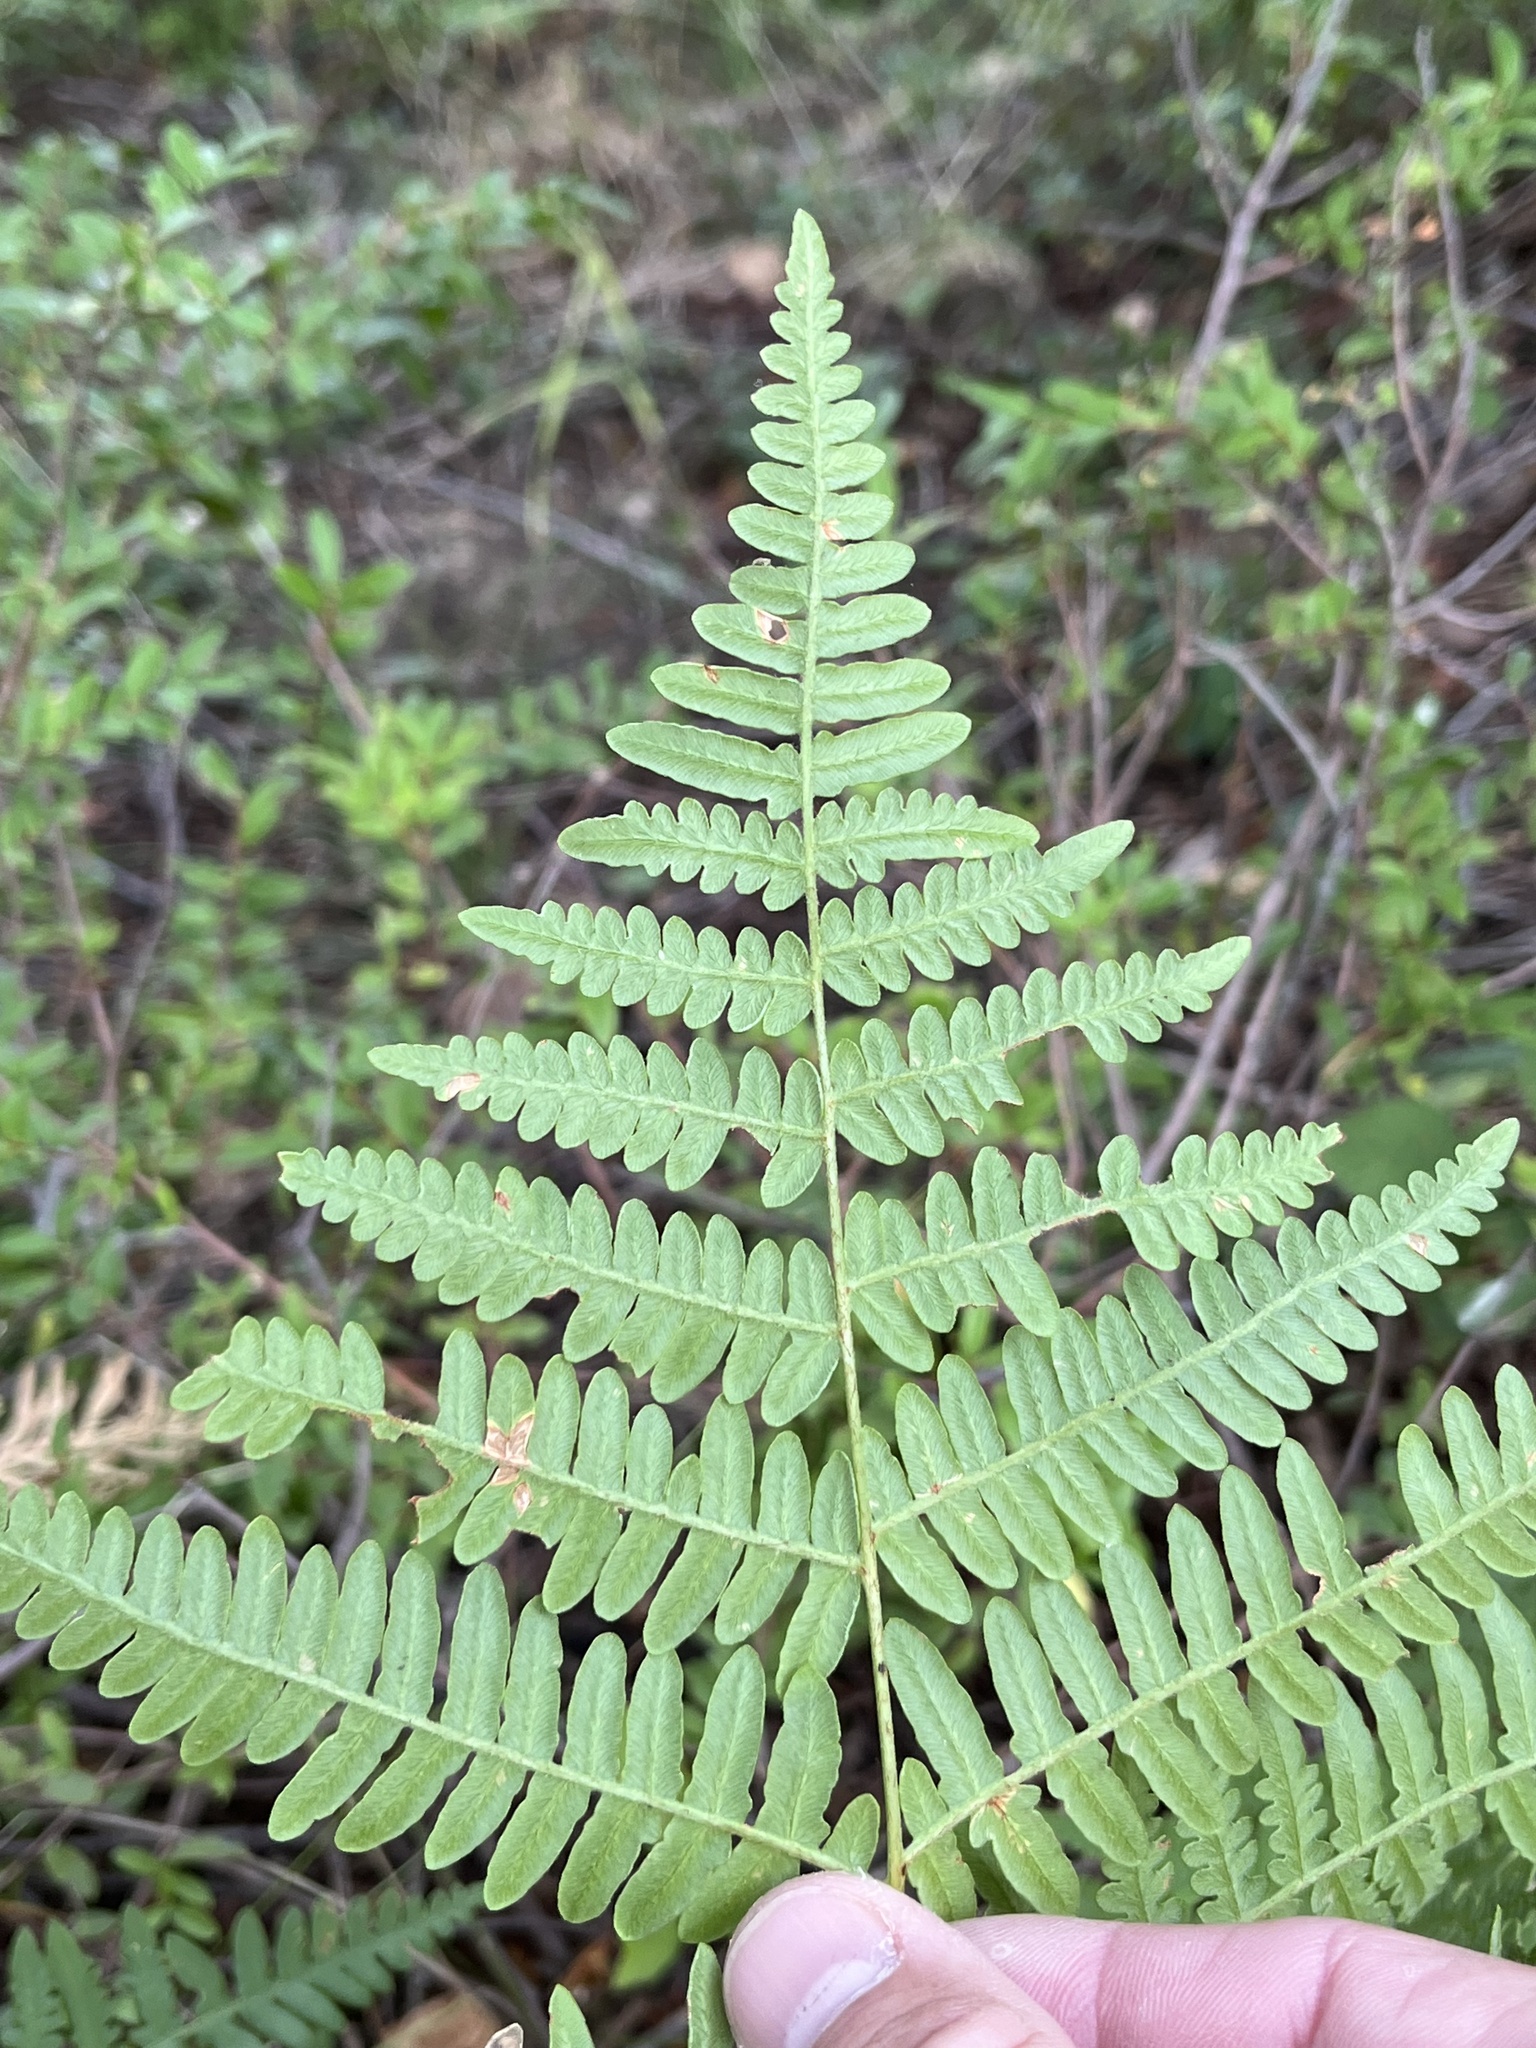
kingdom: Plantae
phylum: Tracheophyta
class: Polypodiopsida
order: Polypodiales
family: Dennstaedtiaceae
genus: Pteridium
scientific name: Pteridium aquilinum
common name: Bracken
